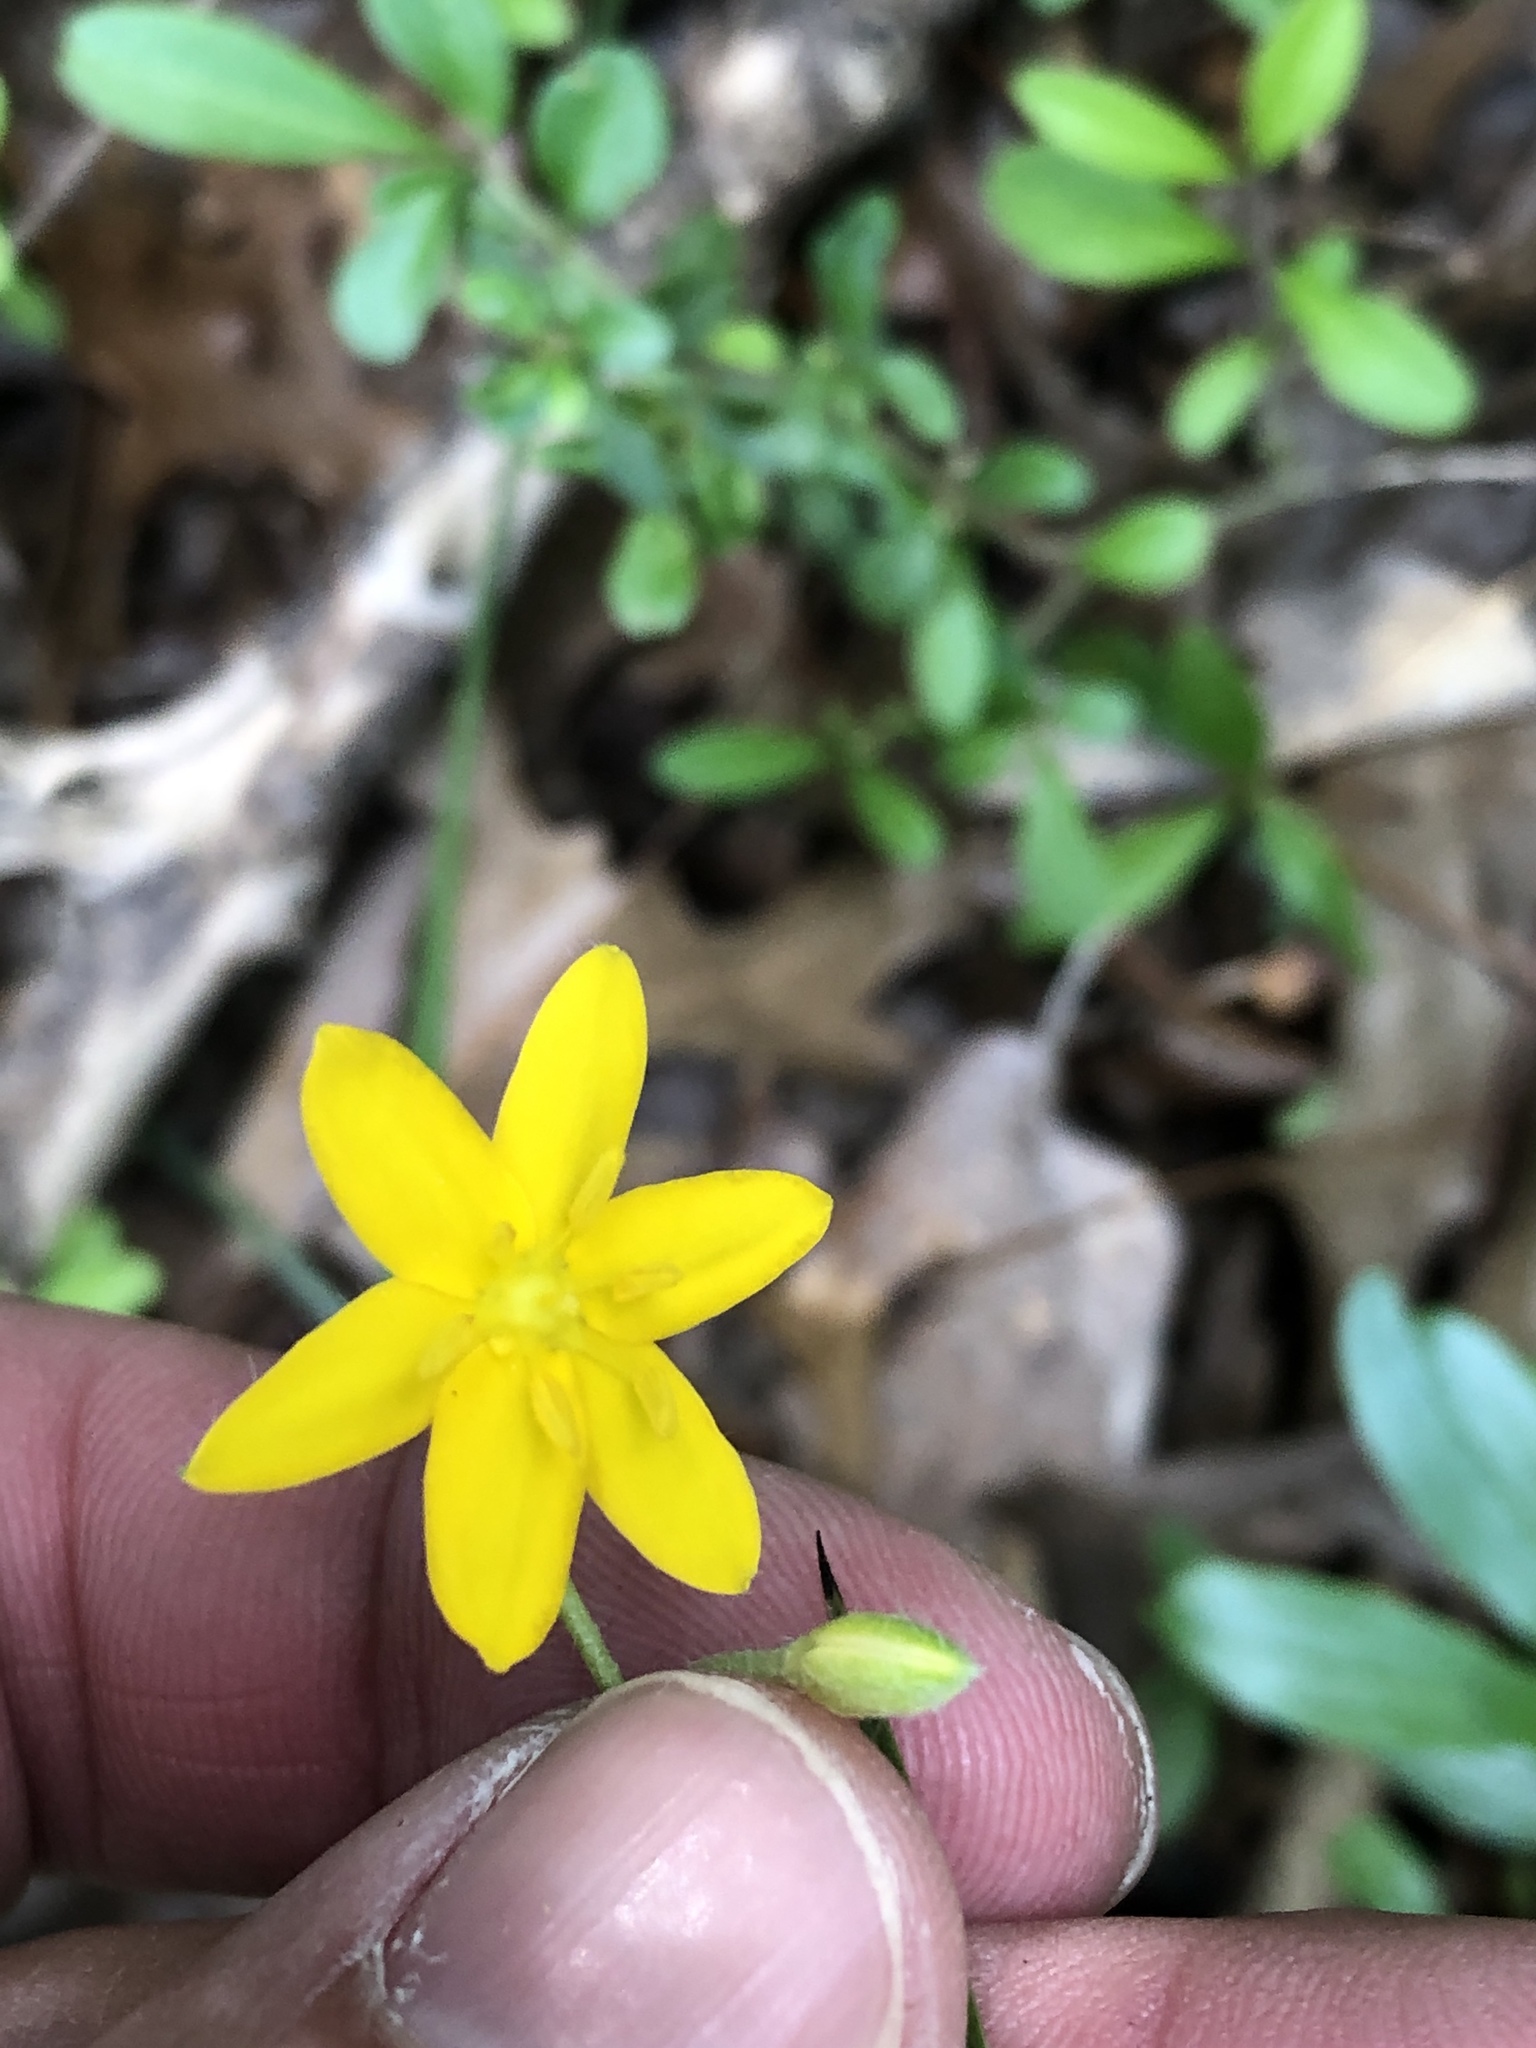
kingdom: Plantae
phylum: Tracheophyta
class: Liliopsida
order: Asparagales
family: Hypoxidaceae
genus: Hypoxis
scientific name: Hypoxis hirsuta
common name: Common goldstar
